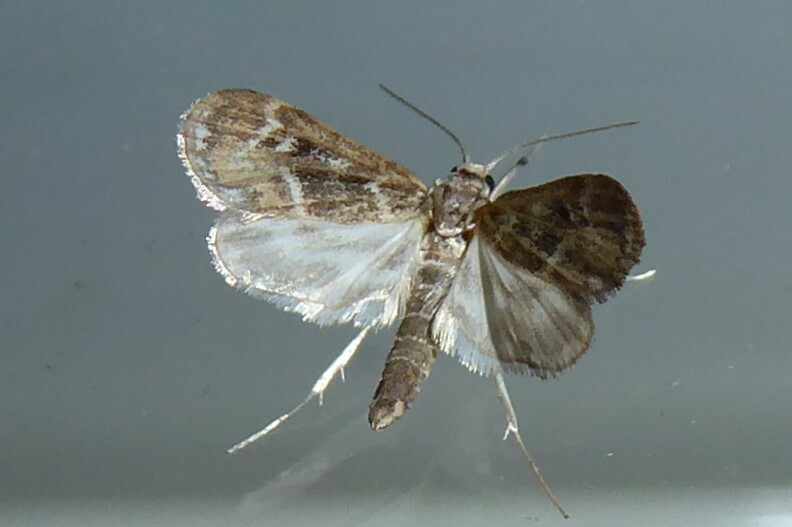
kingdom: Animalia
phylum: Arthropoda
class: Insecta
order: Lepidoptera
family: Crambidae
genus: Hygraula
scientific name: Hygraula nitens
